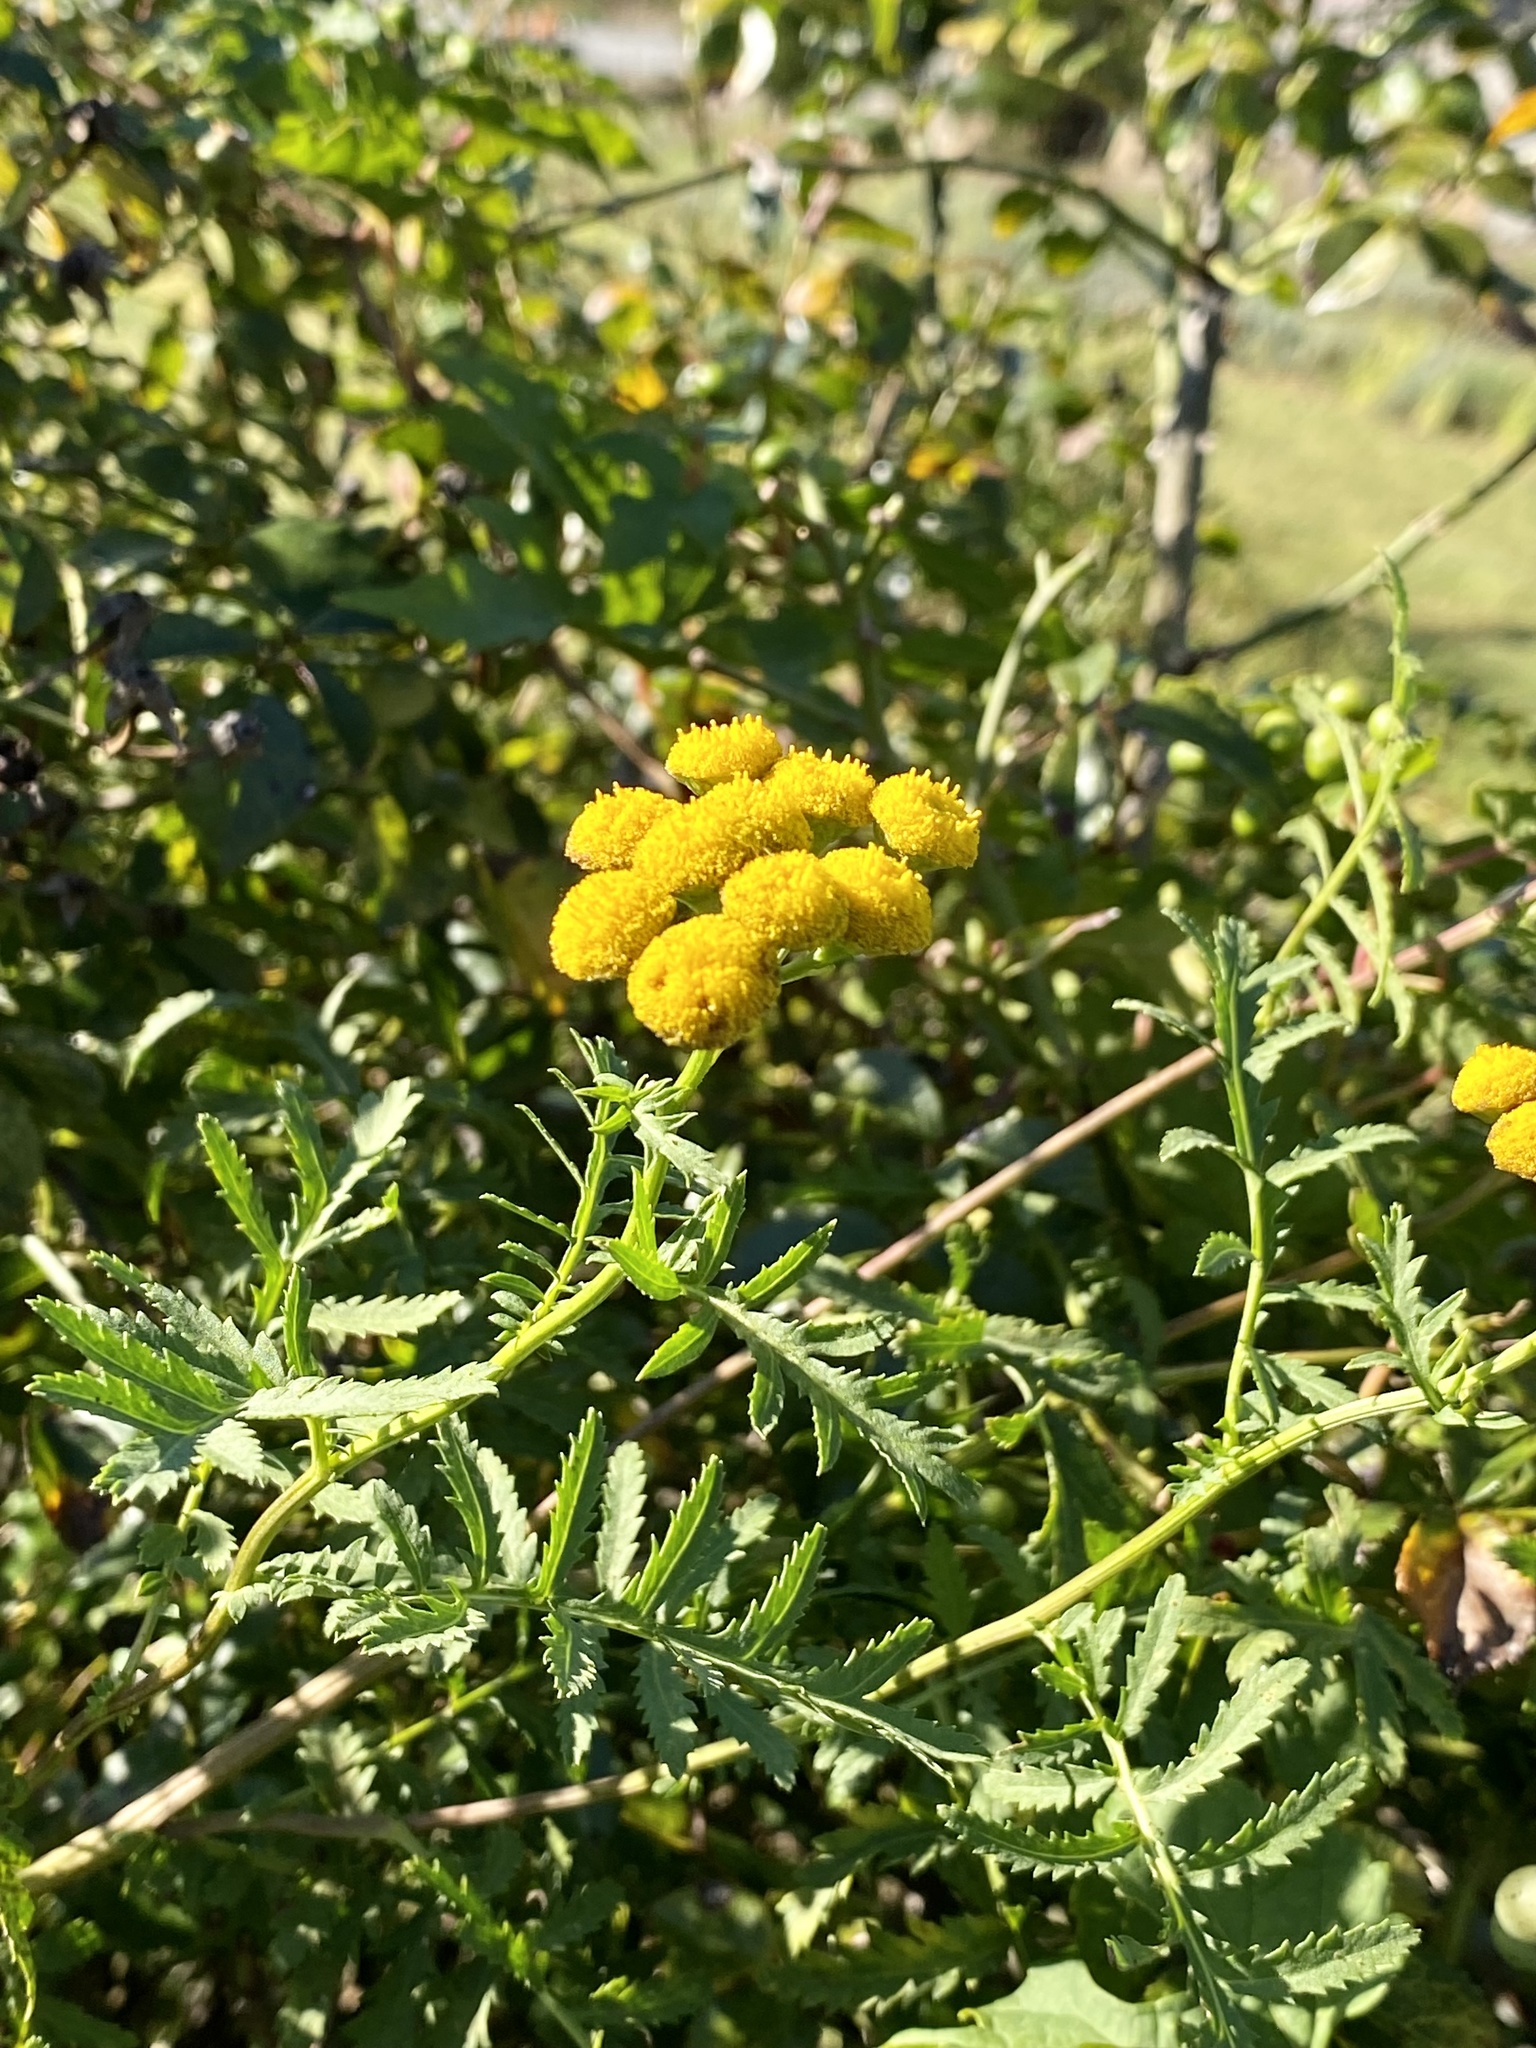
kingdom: Plantae
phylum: Tracheophyta
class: Magnoliopsida
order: Asterales
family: Asteraceae
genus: Tanacetum
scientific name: Tanacetum vulgare
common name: Common tansy
